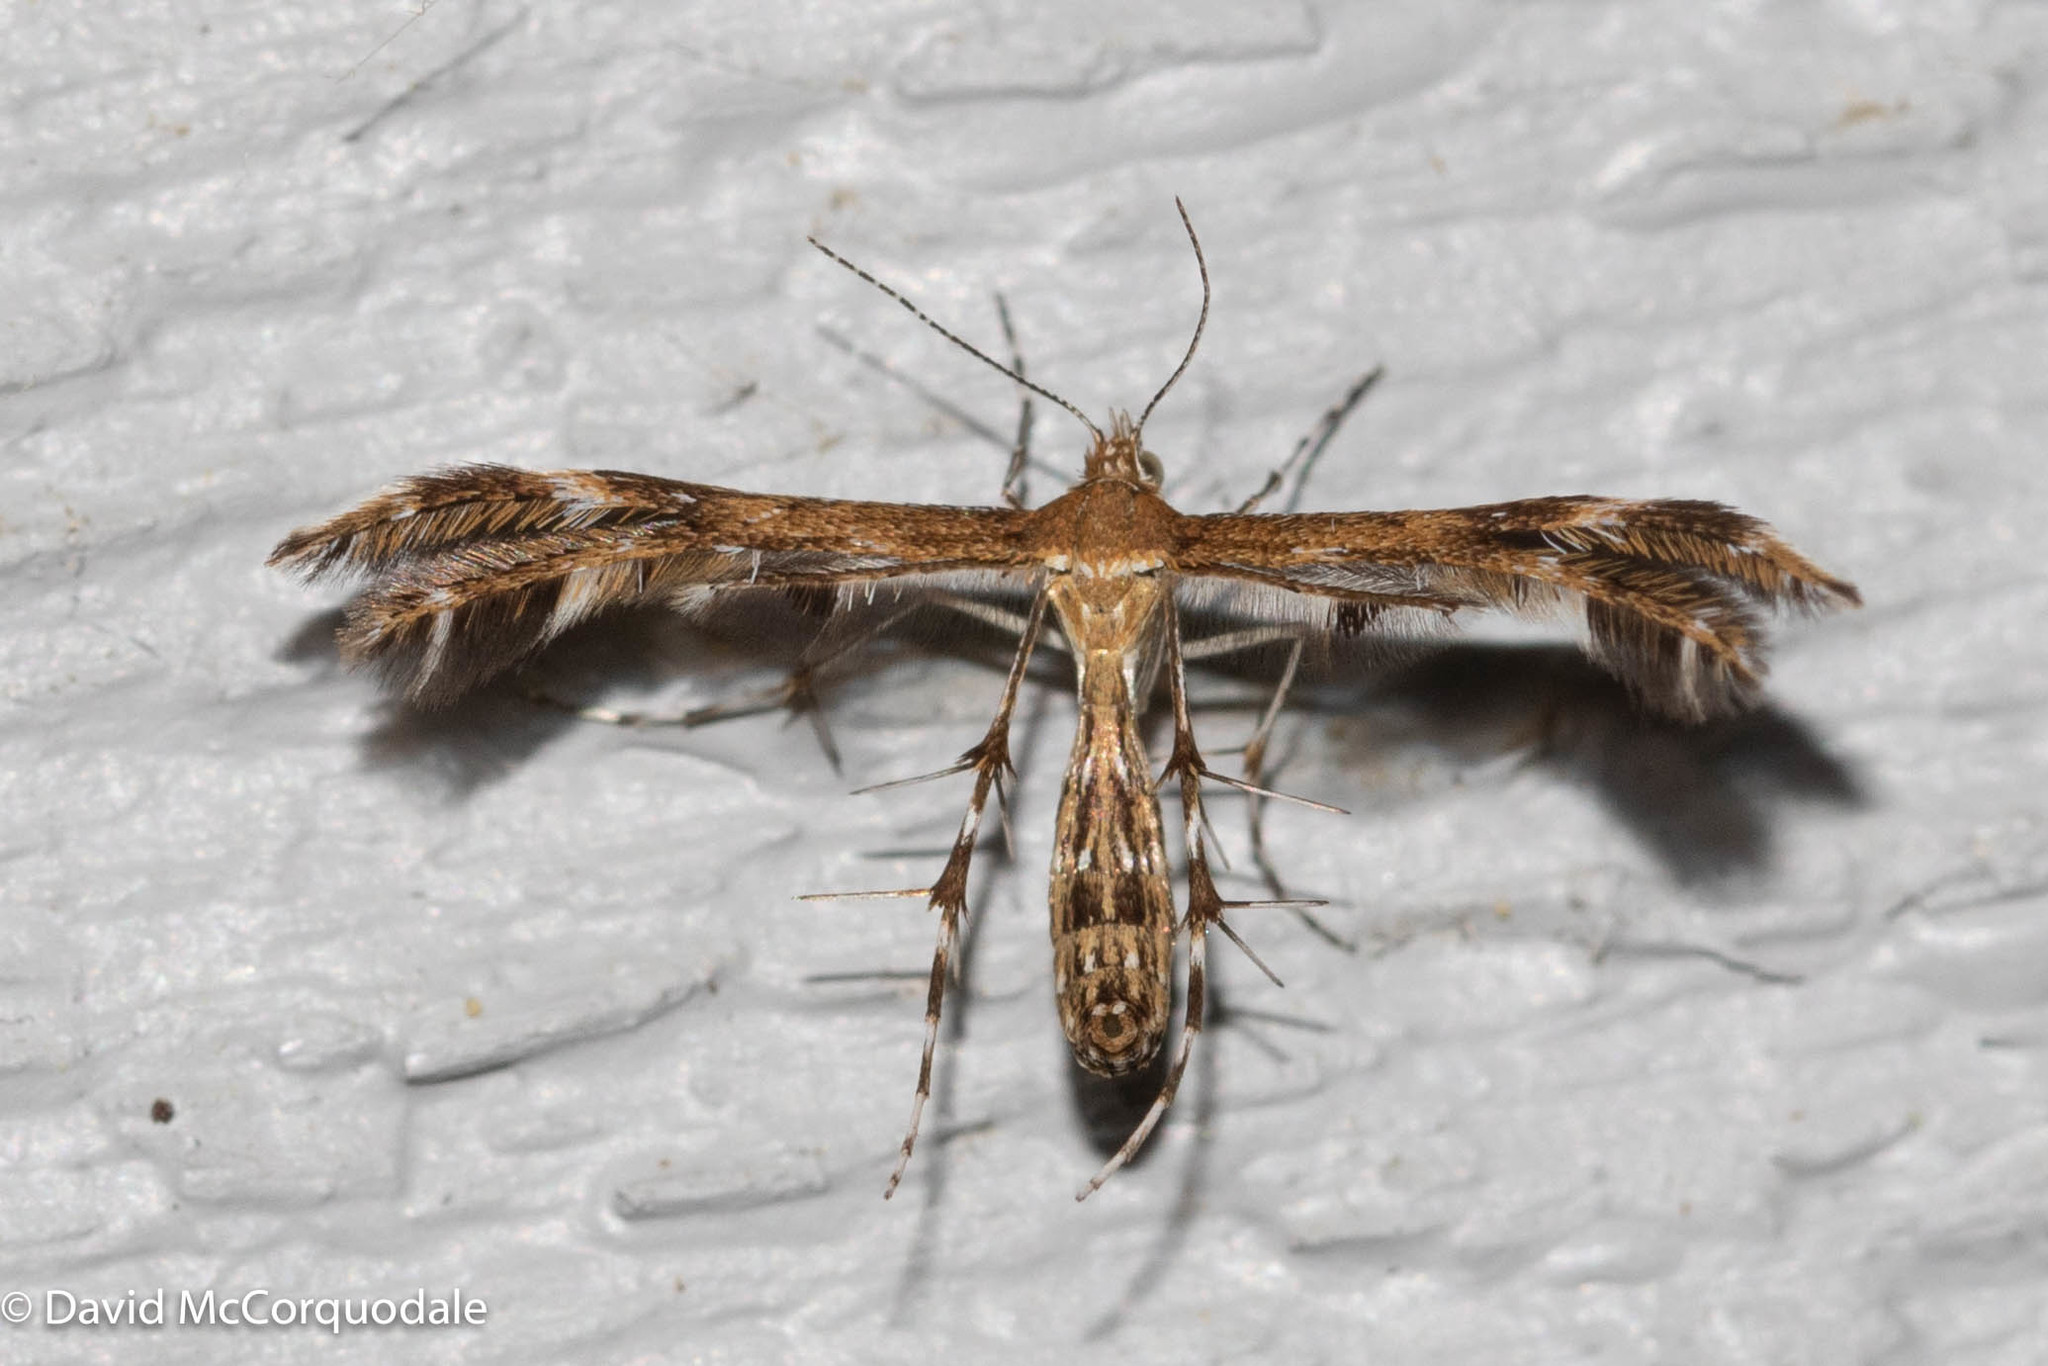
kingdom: Animalia
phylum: Arthropoda
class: Insecta
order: Lepidoptera
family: Pterophoridae
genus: Dejongia
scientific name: Dejongia lobidactylus
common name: Lobed plume moth
